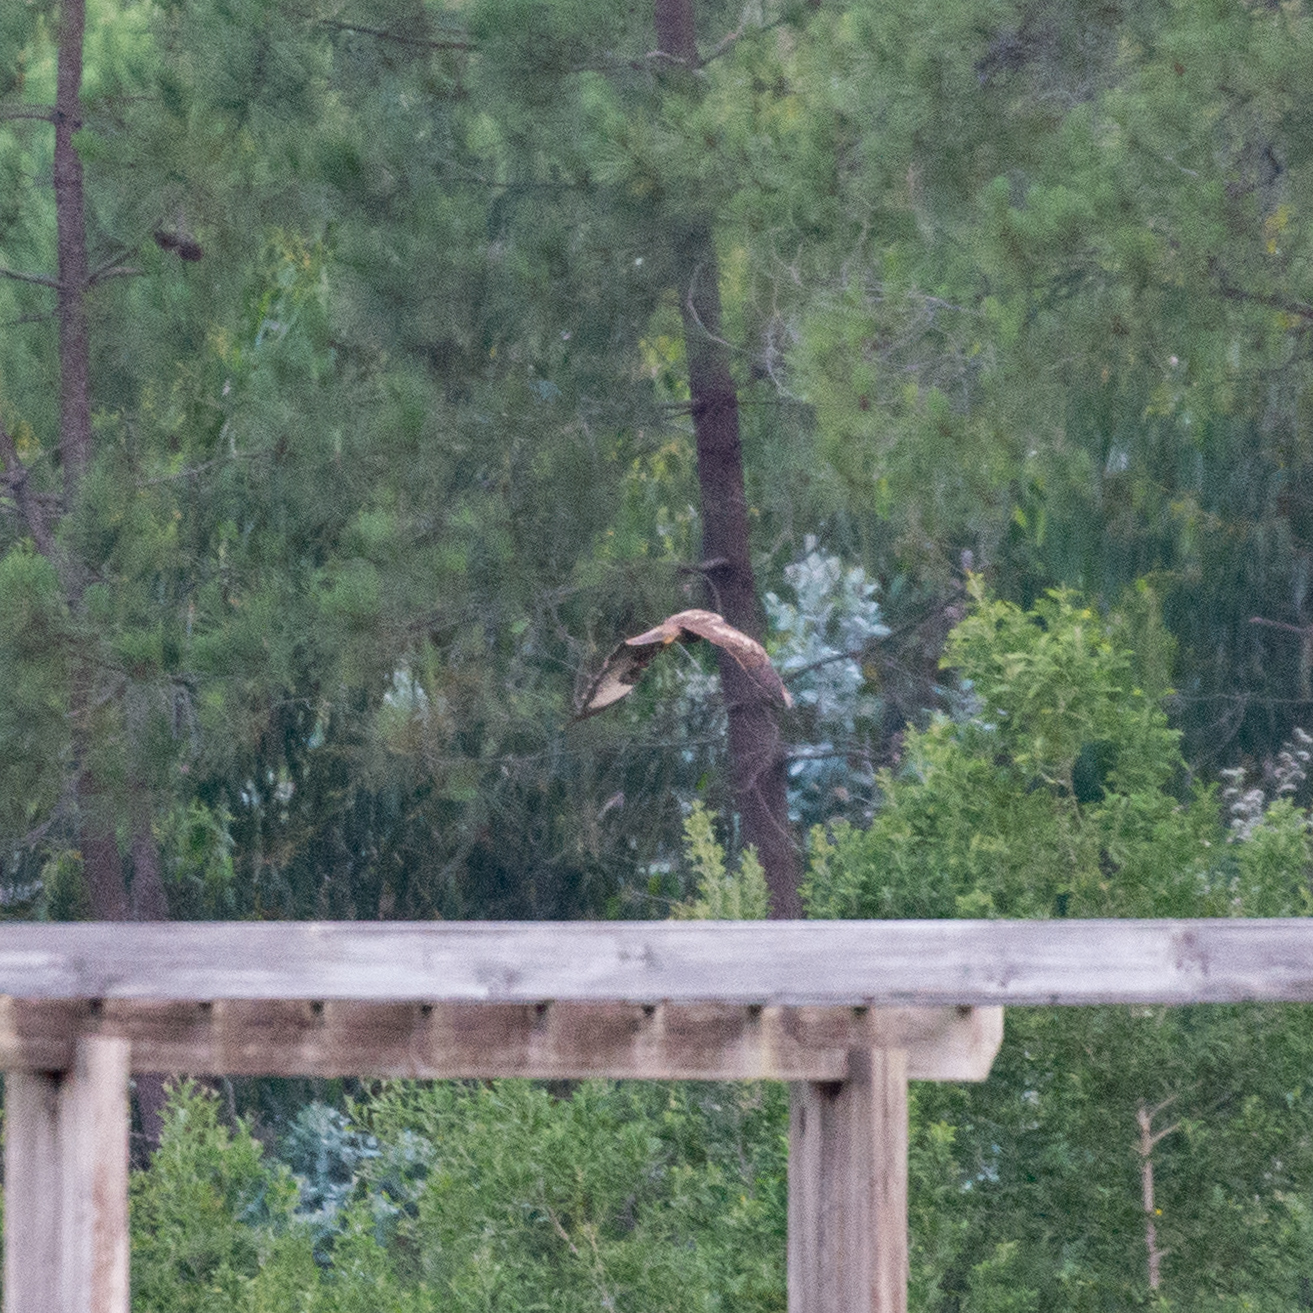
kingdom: Animalia
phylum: Chordata
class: Aves
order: Accipitriformes
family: Accipitridae
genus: Buteo
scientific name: Buteo buteo
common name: Common buzzard
